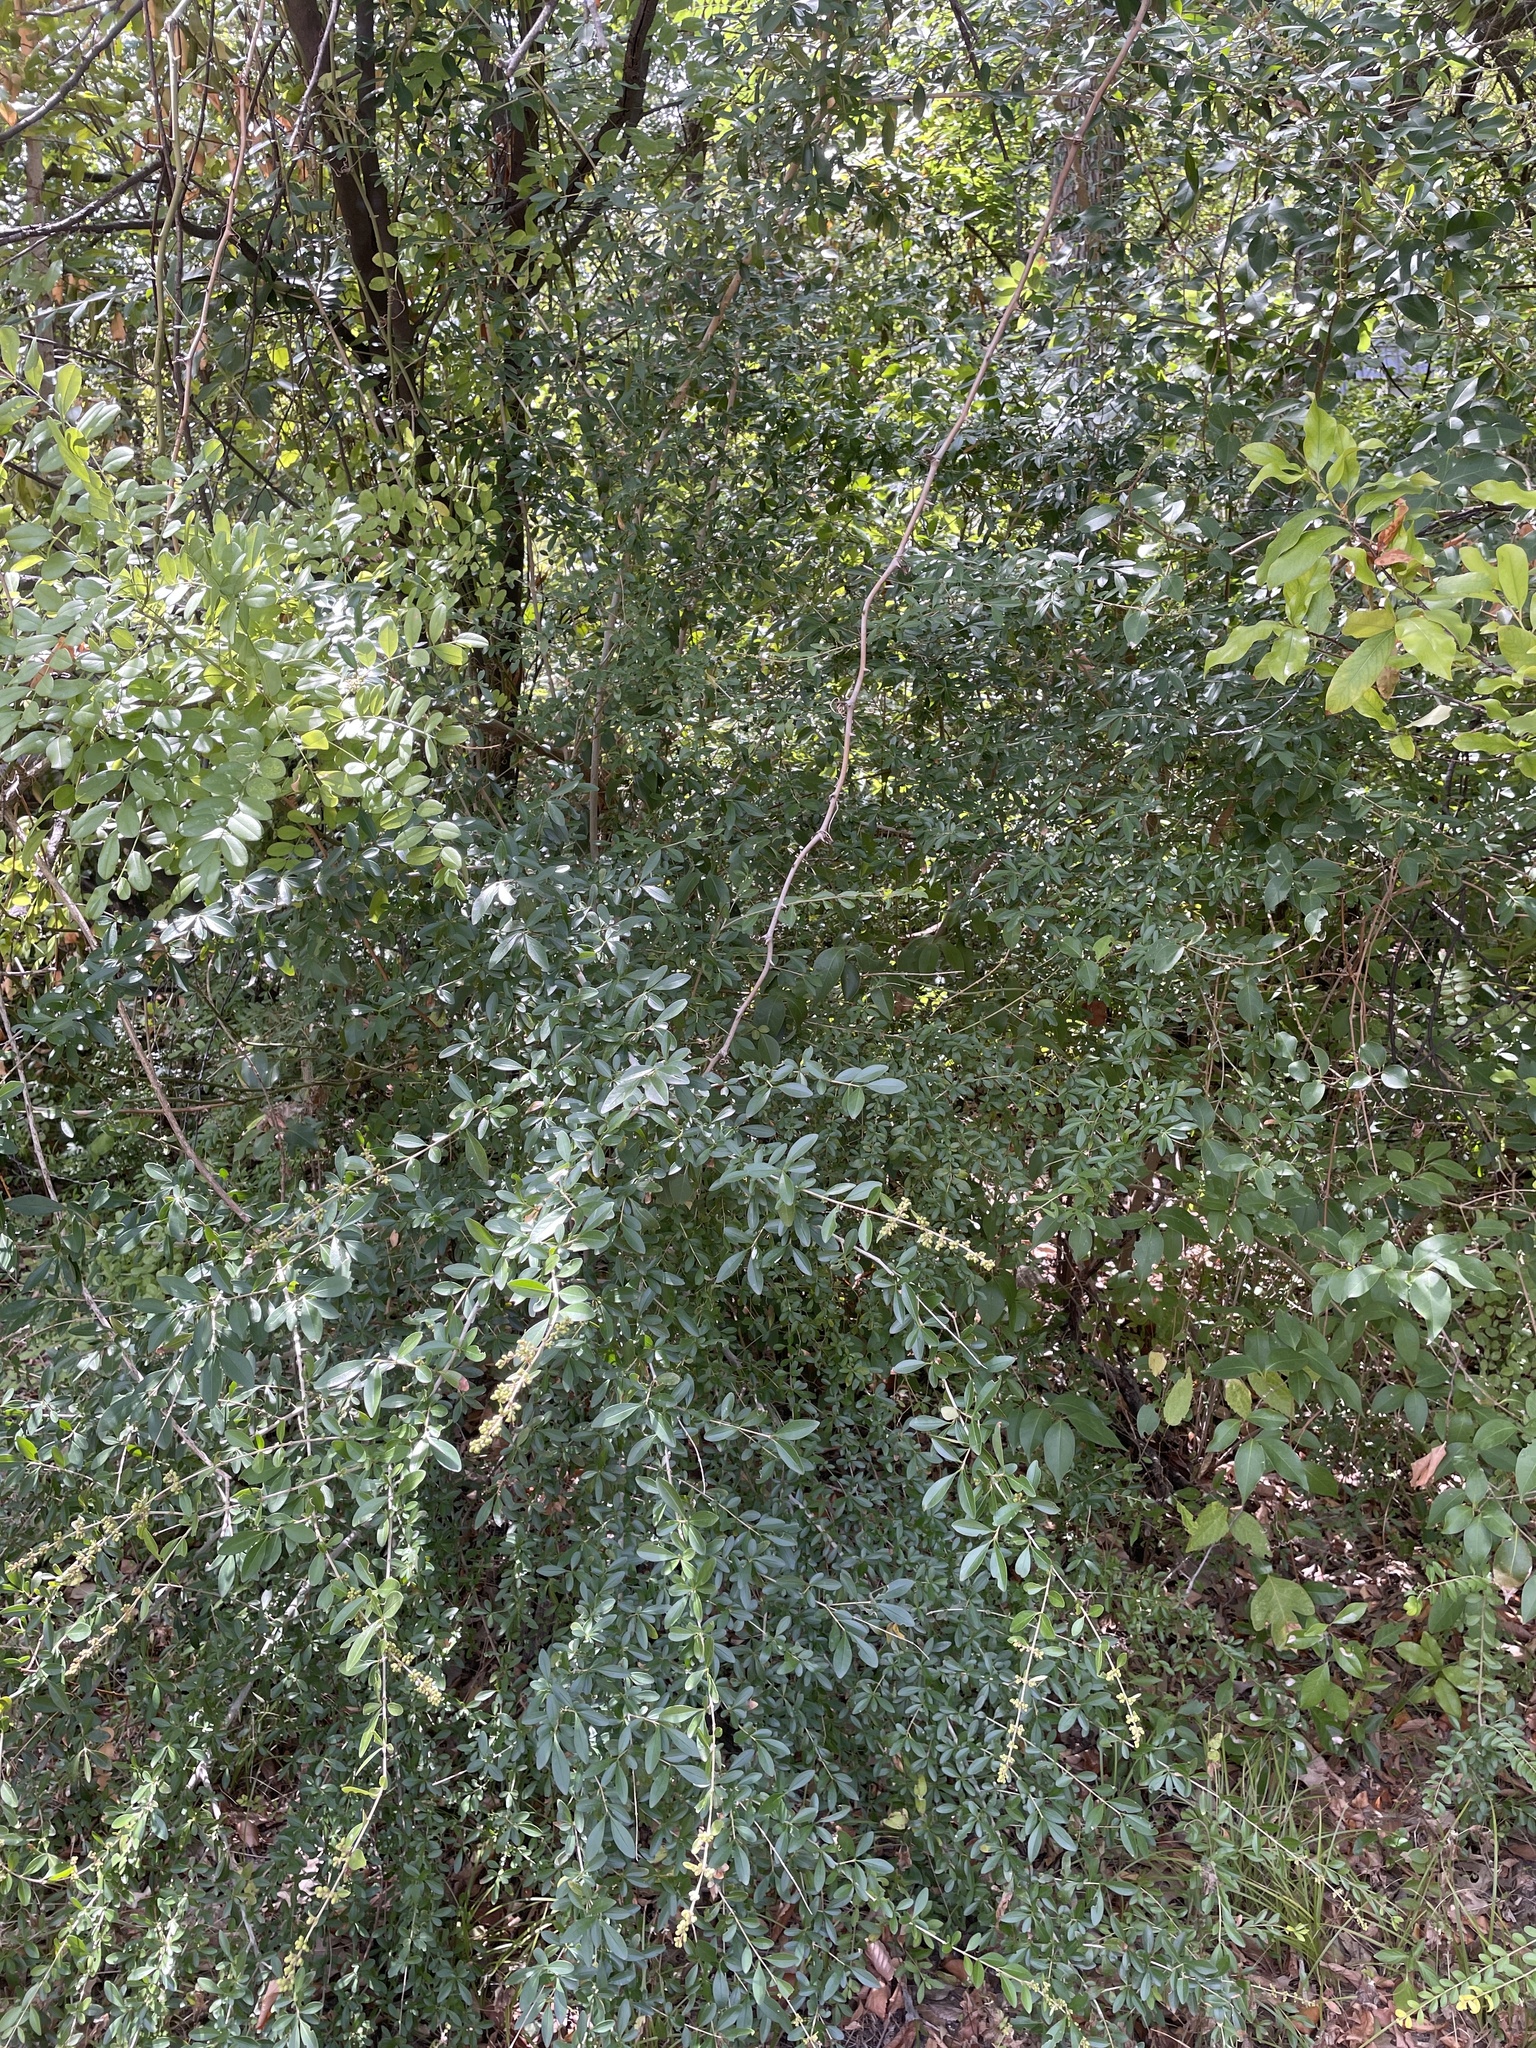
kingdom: Plantae
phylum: Tracheophyta
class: Magnoliopsida
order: Lamiales
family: Oleaceae
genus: Ligustrum
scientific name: Ligustrum quihoui
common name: Waxyleaf privet
